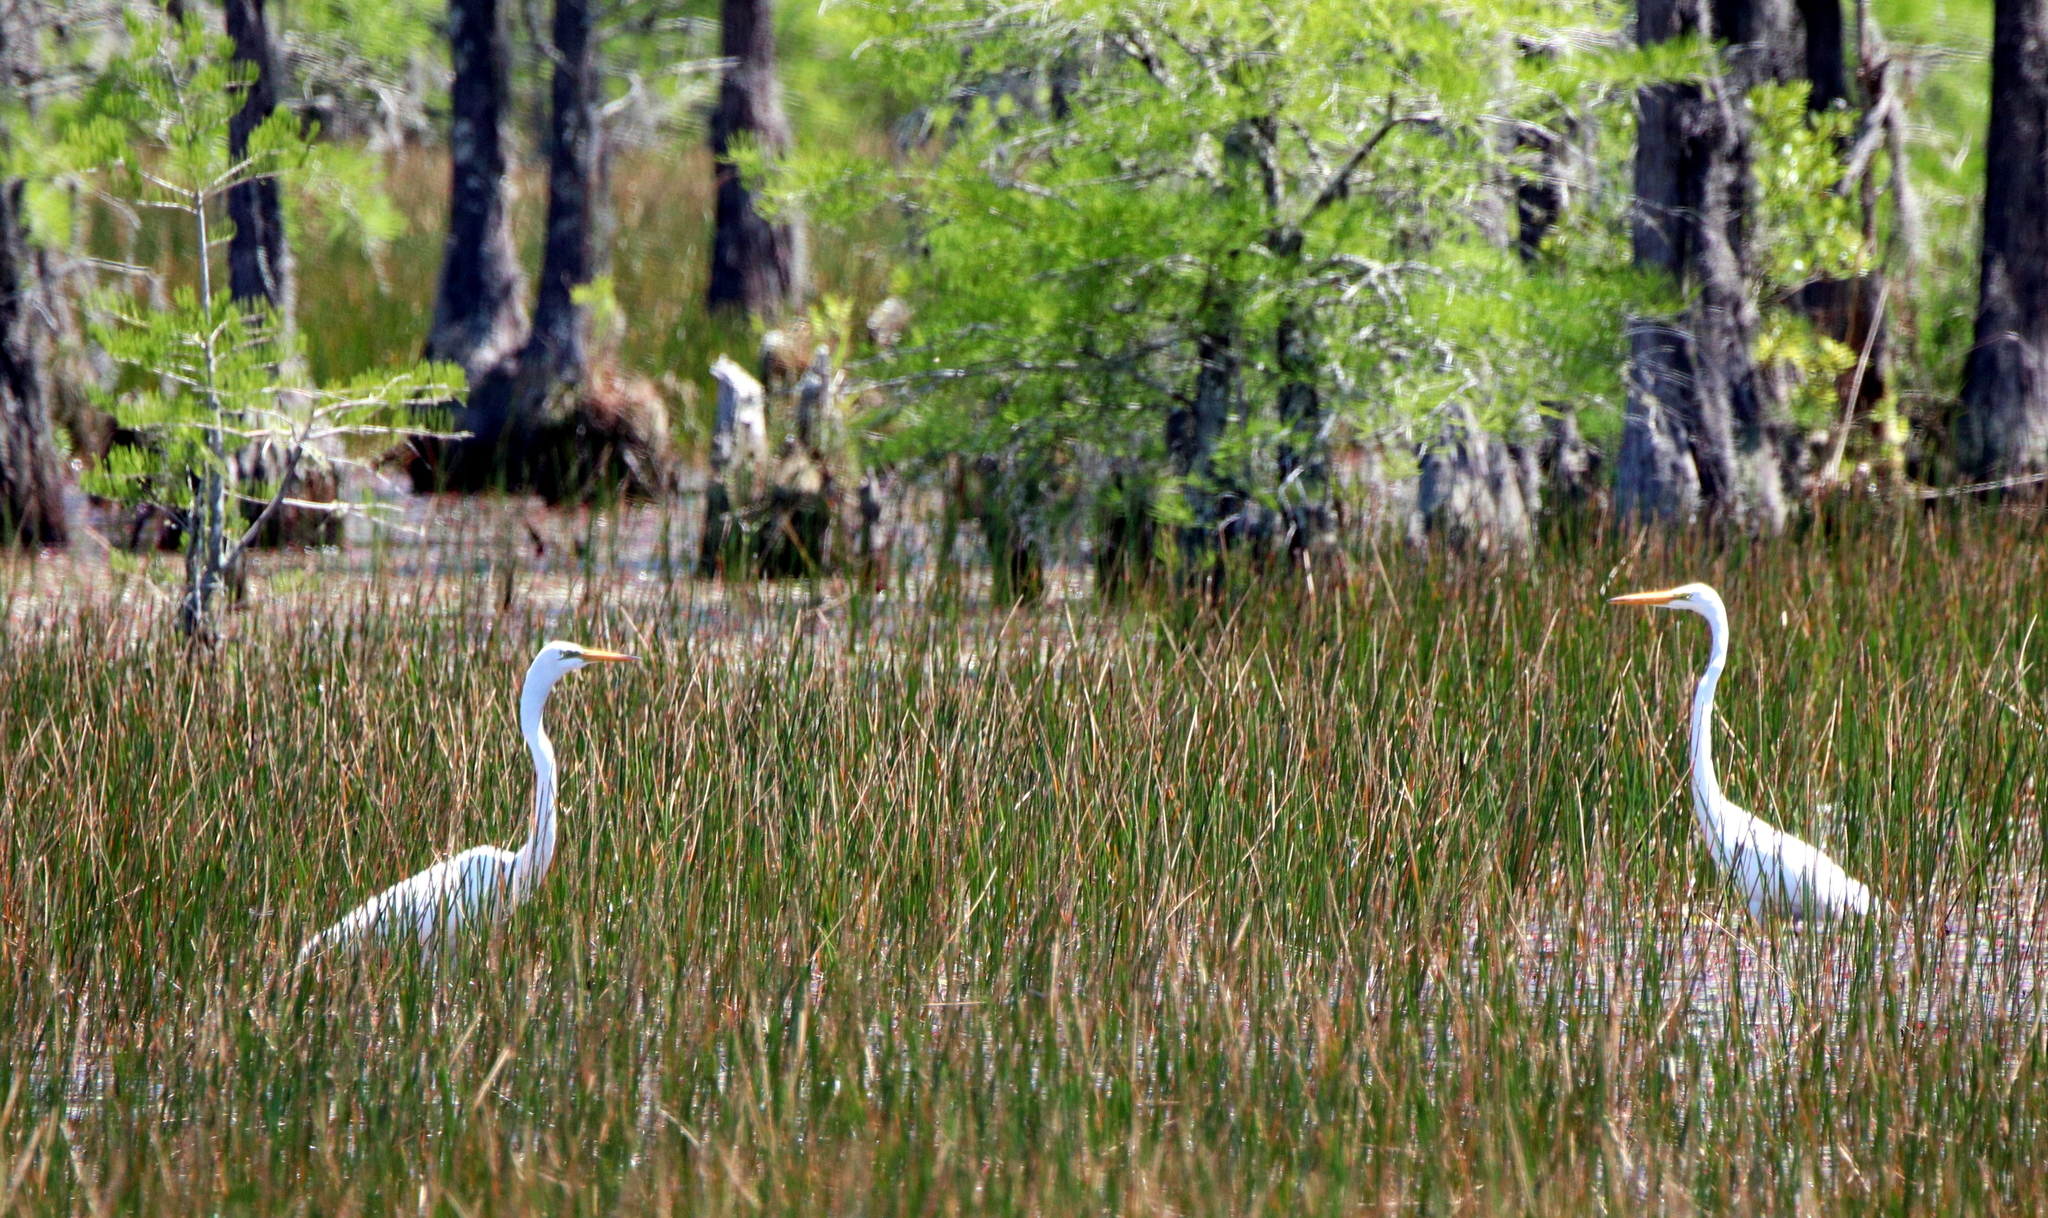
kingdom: Animalia
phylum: Chordata
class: Aves
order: Pelecaniformes
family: Ardeidae
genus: Ardea
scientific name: Ardea alba
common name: Great egret
